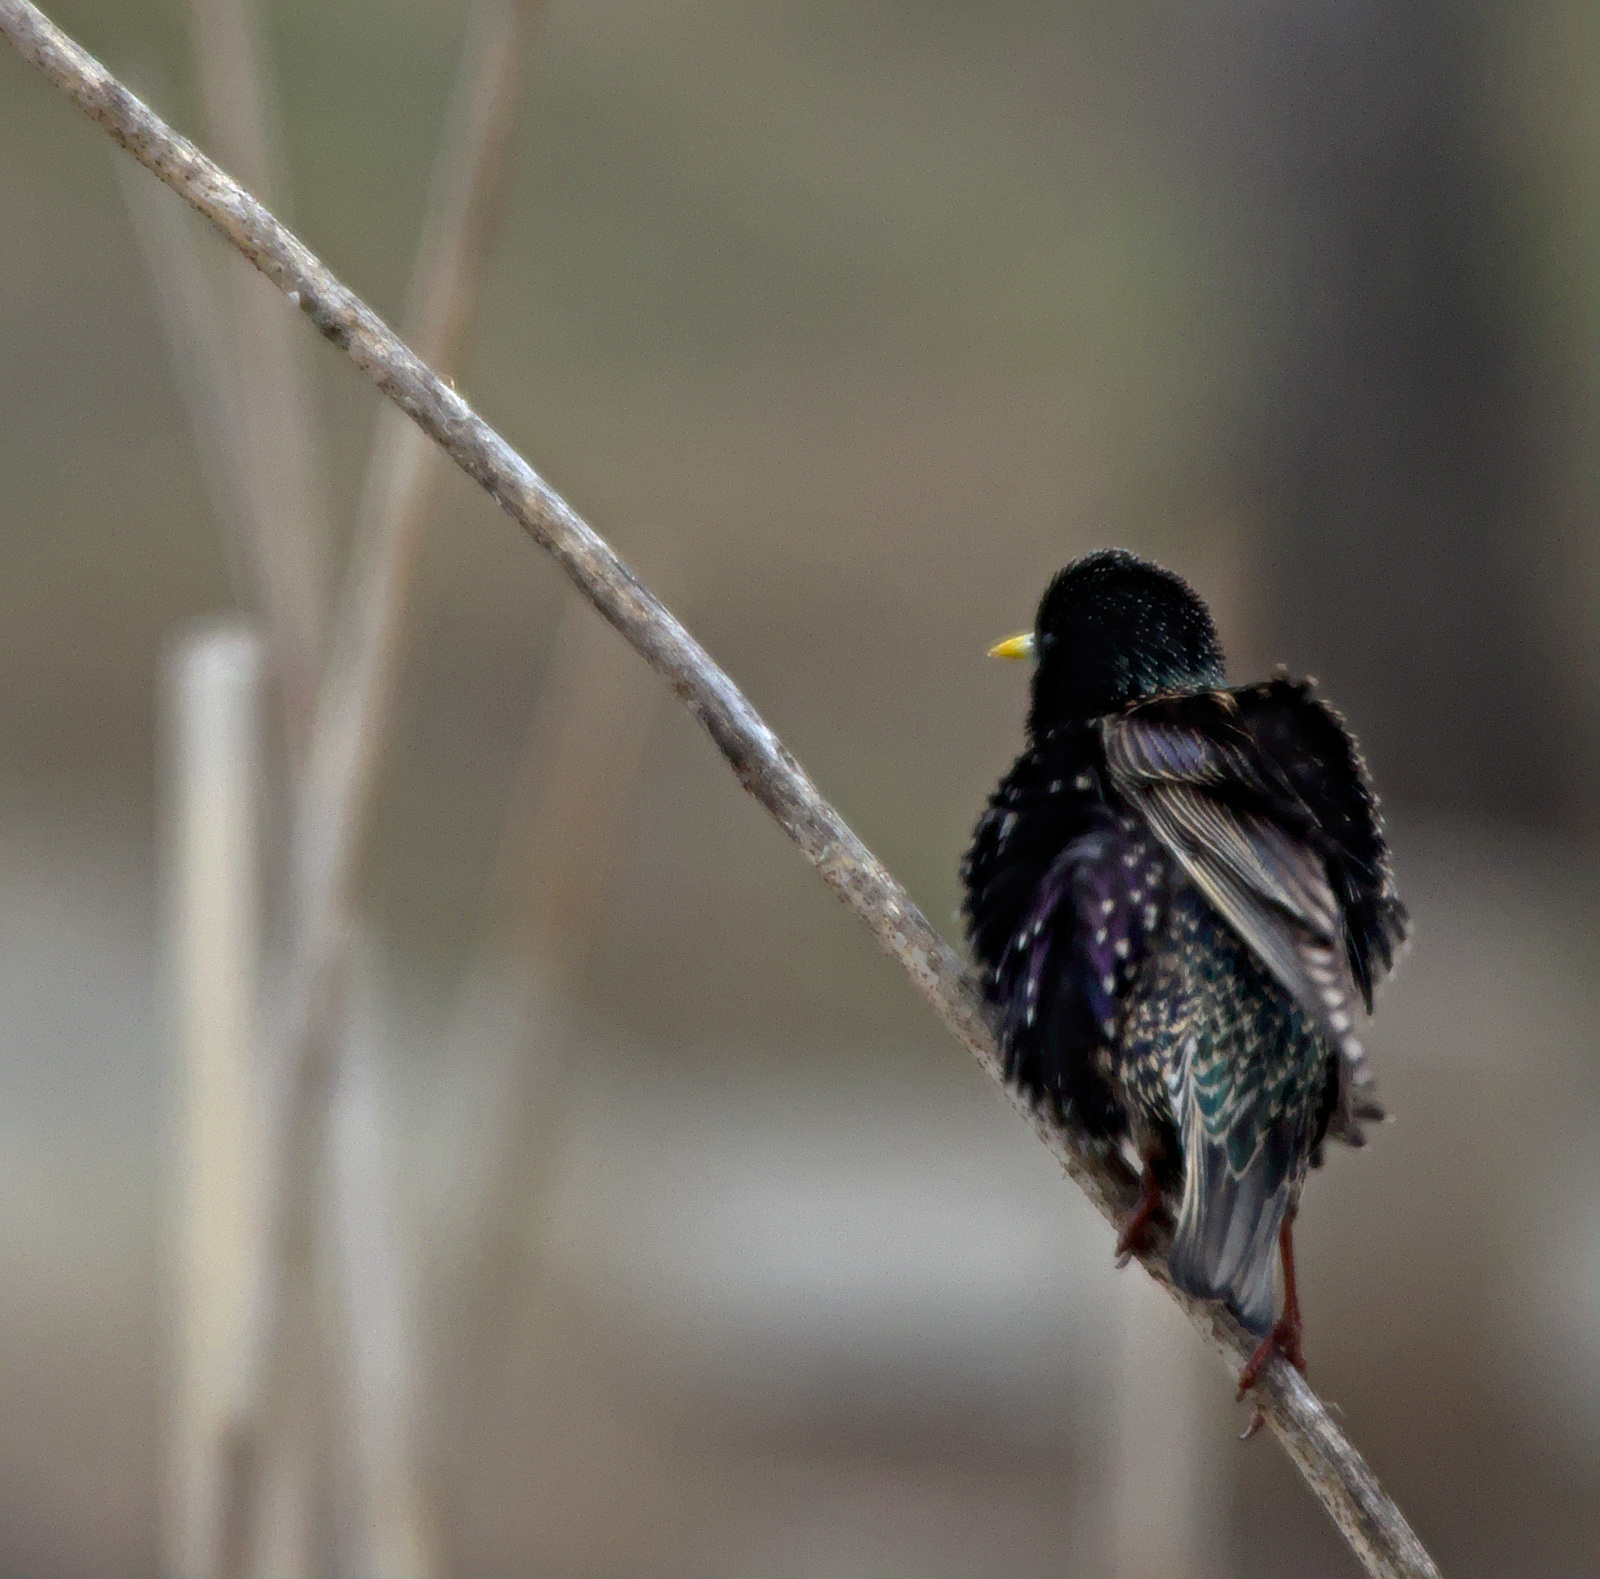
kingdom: Animalia
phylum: Chordata
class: Aves
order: Passeriformes
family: Sturnidae
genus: Sturnus
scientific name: Sturnus vulgaris
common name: Common starling
